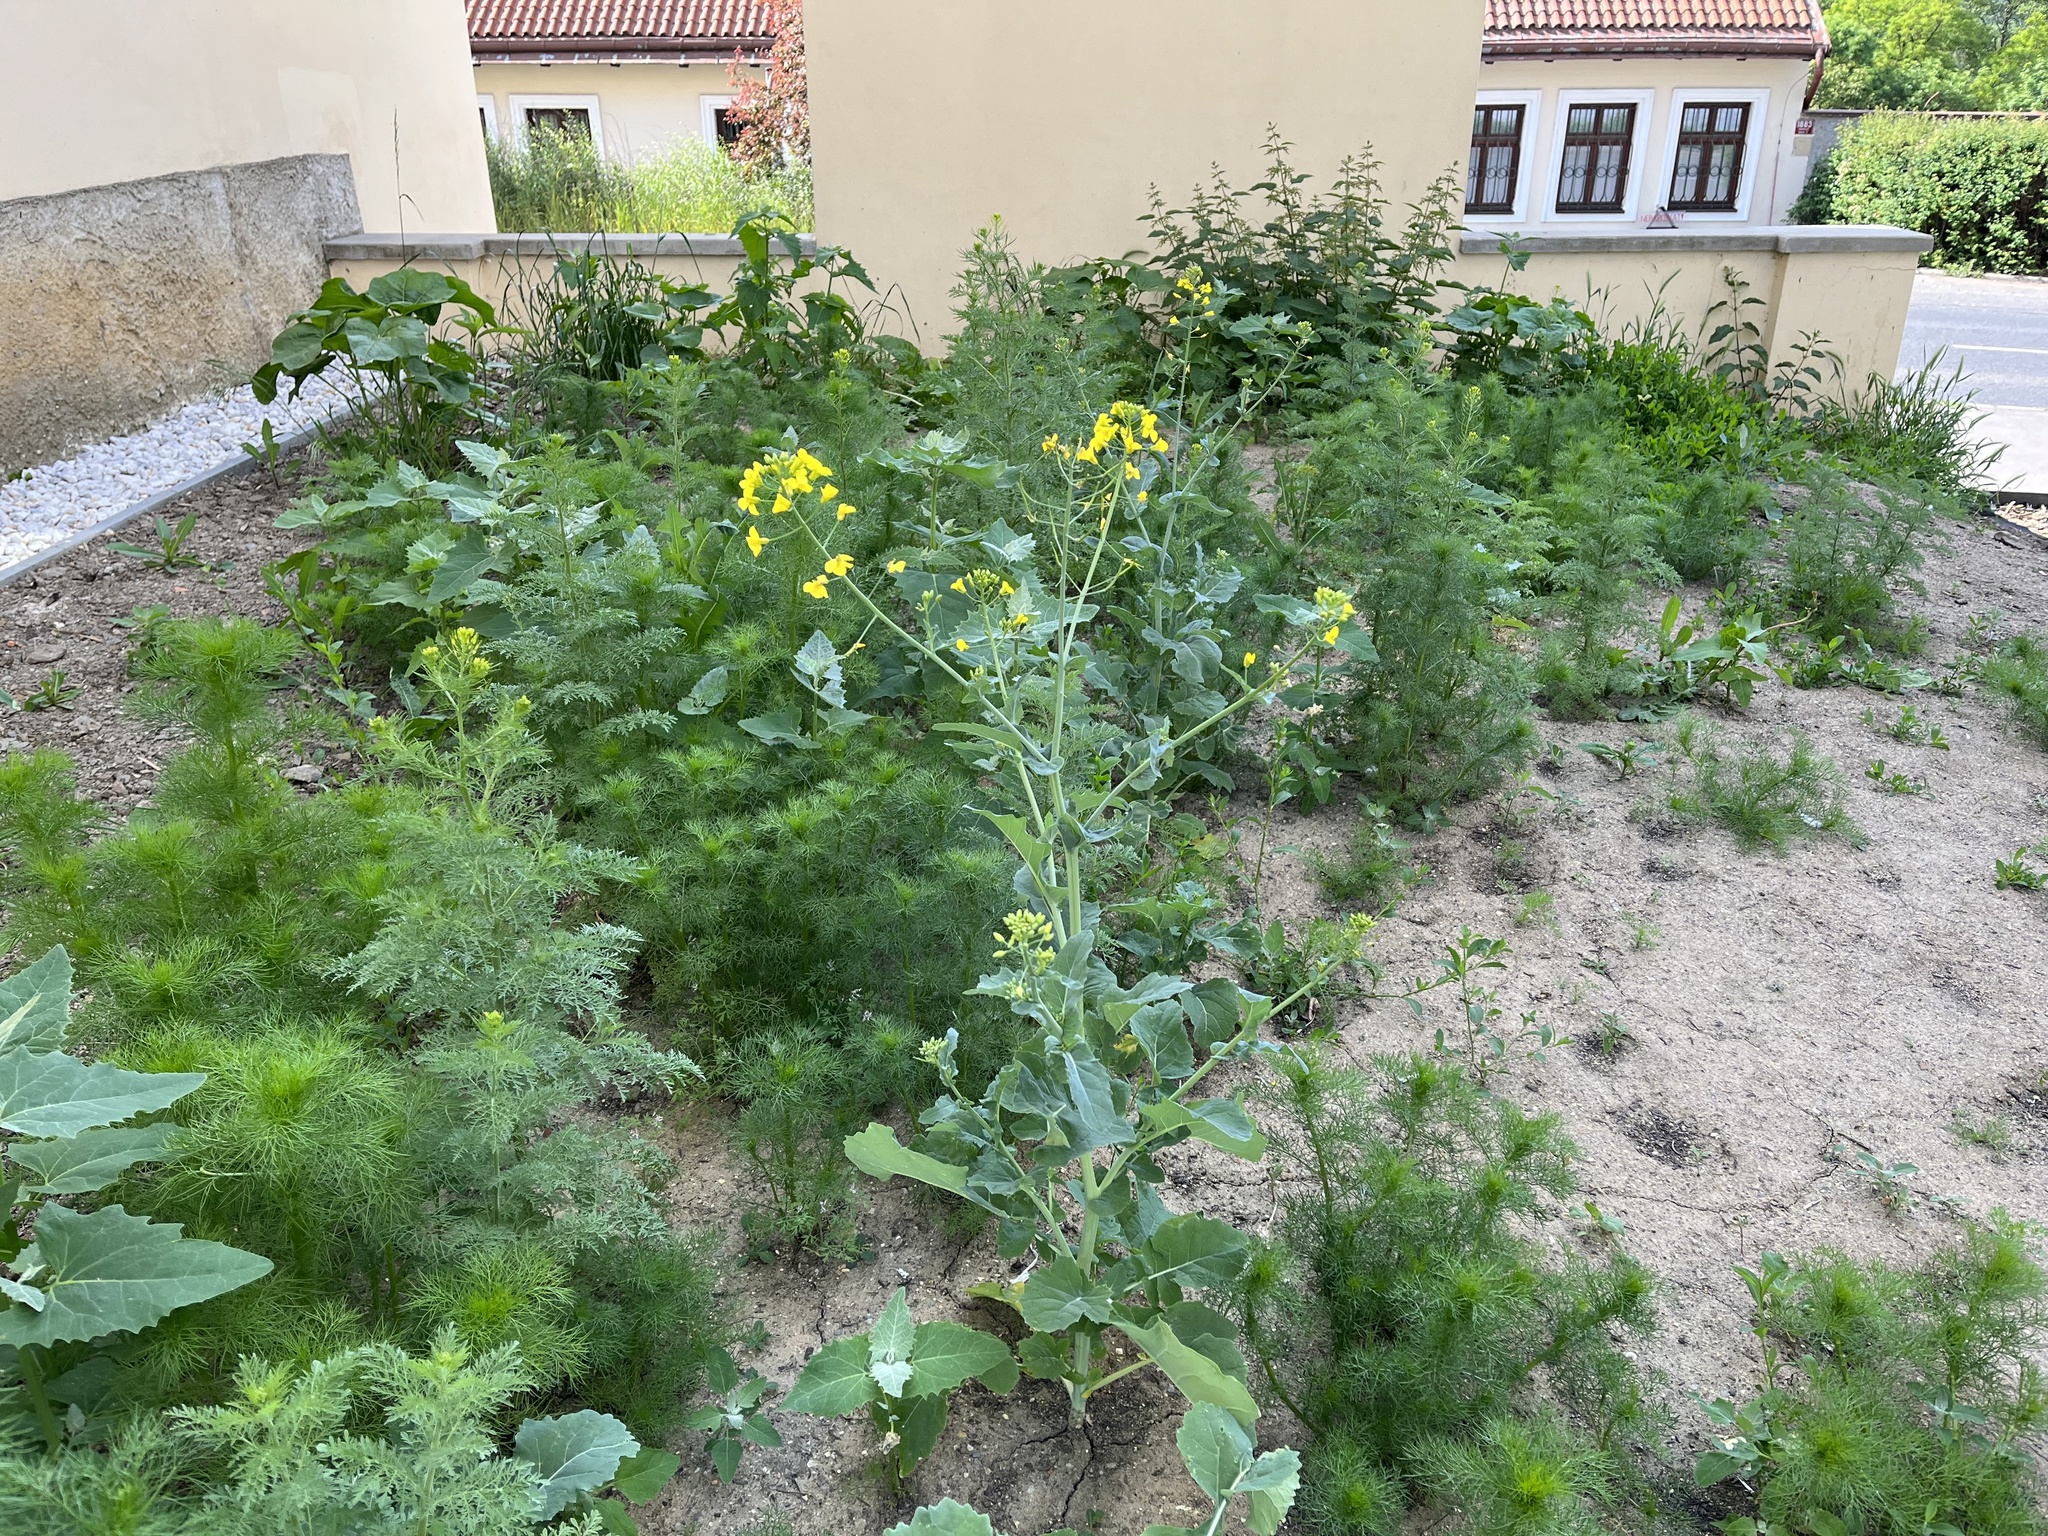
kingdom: Plantae
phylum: Tracheophyta
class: Magnoliopsida
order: Brassicales
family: Brassicaceae
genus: Brassica
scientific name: Brassica napus
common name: Rape
